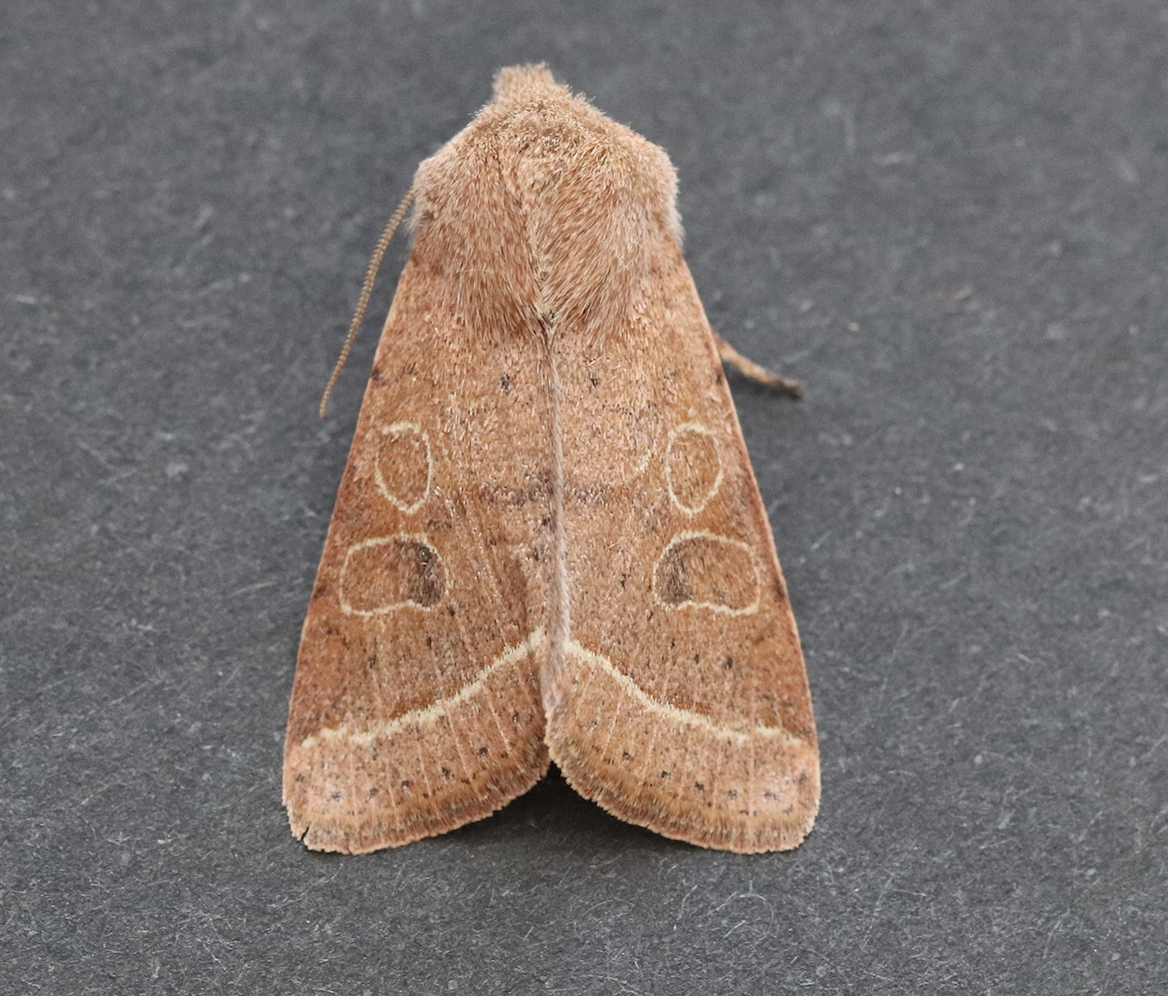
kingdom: Animalia
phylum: Arthropoda
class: Insecta
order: Lepidoptera
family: Noctuidae
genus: Orthosia
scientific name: Orthosia cerasi
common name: Common quaker
